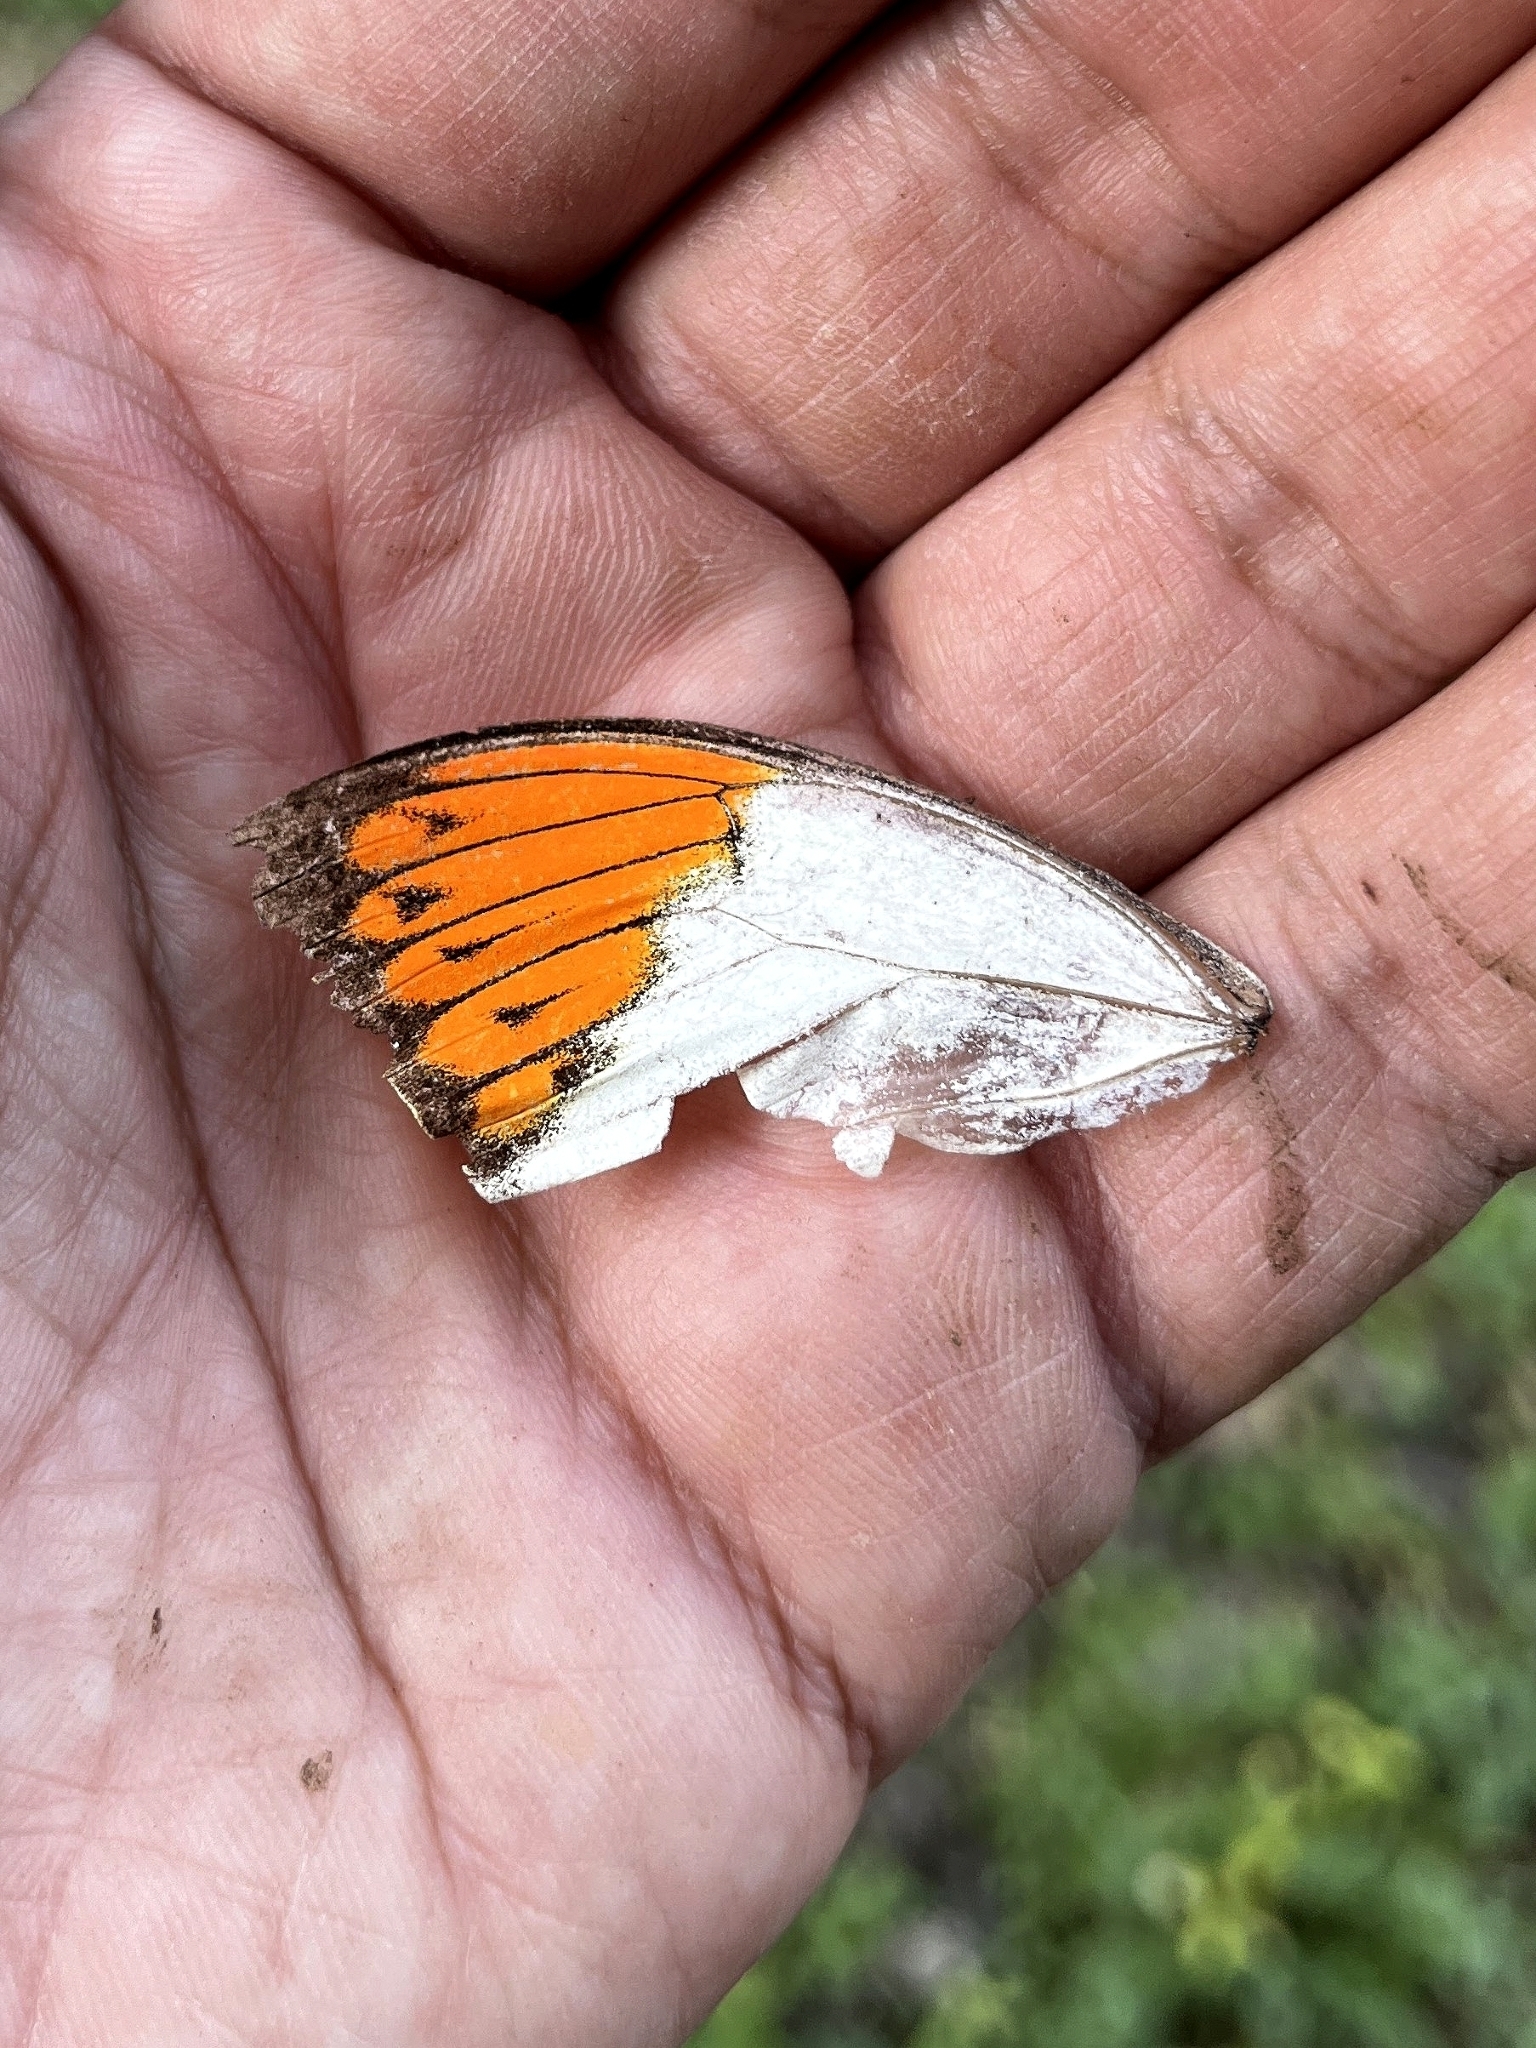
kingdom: Animalia
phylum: Arthropoda
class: Insecta
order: Lepidoptera
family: Pieridae
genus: Hebomoia
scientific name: Hebomoia glaucippe
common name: Great orange tip
